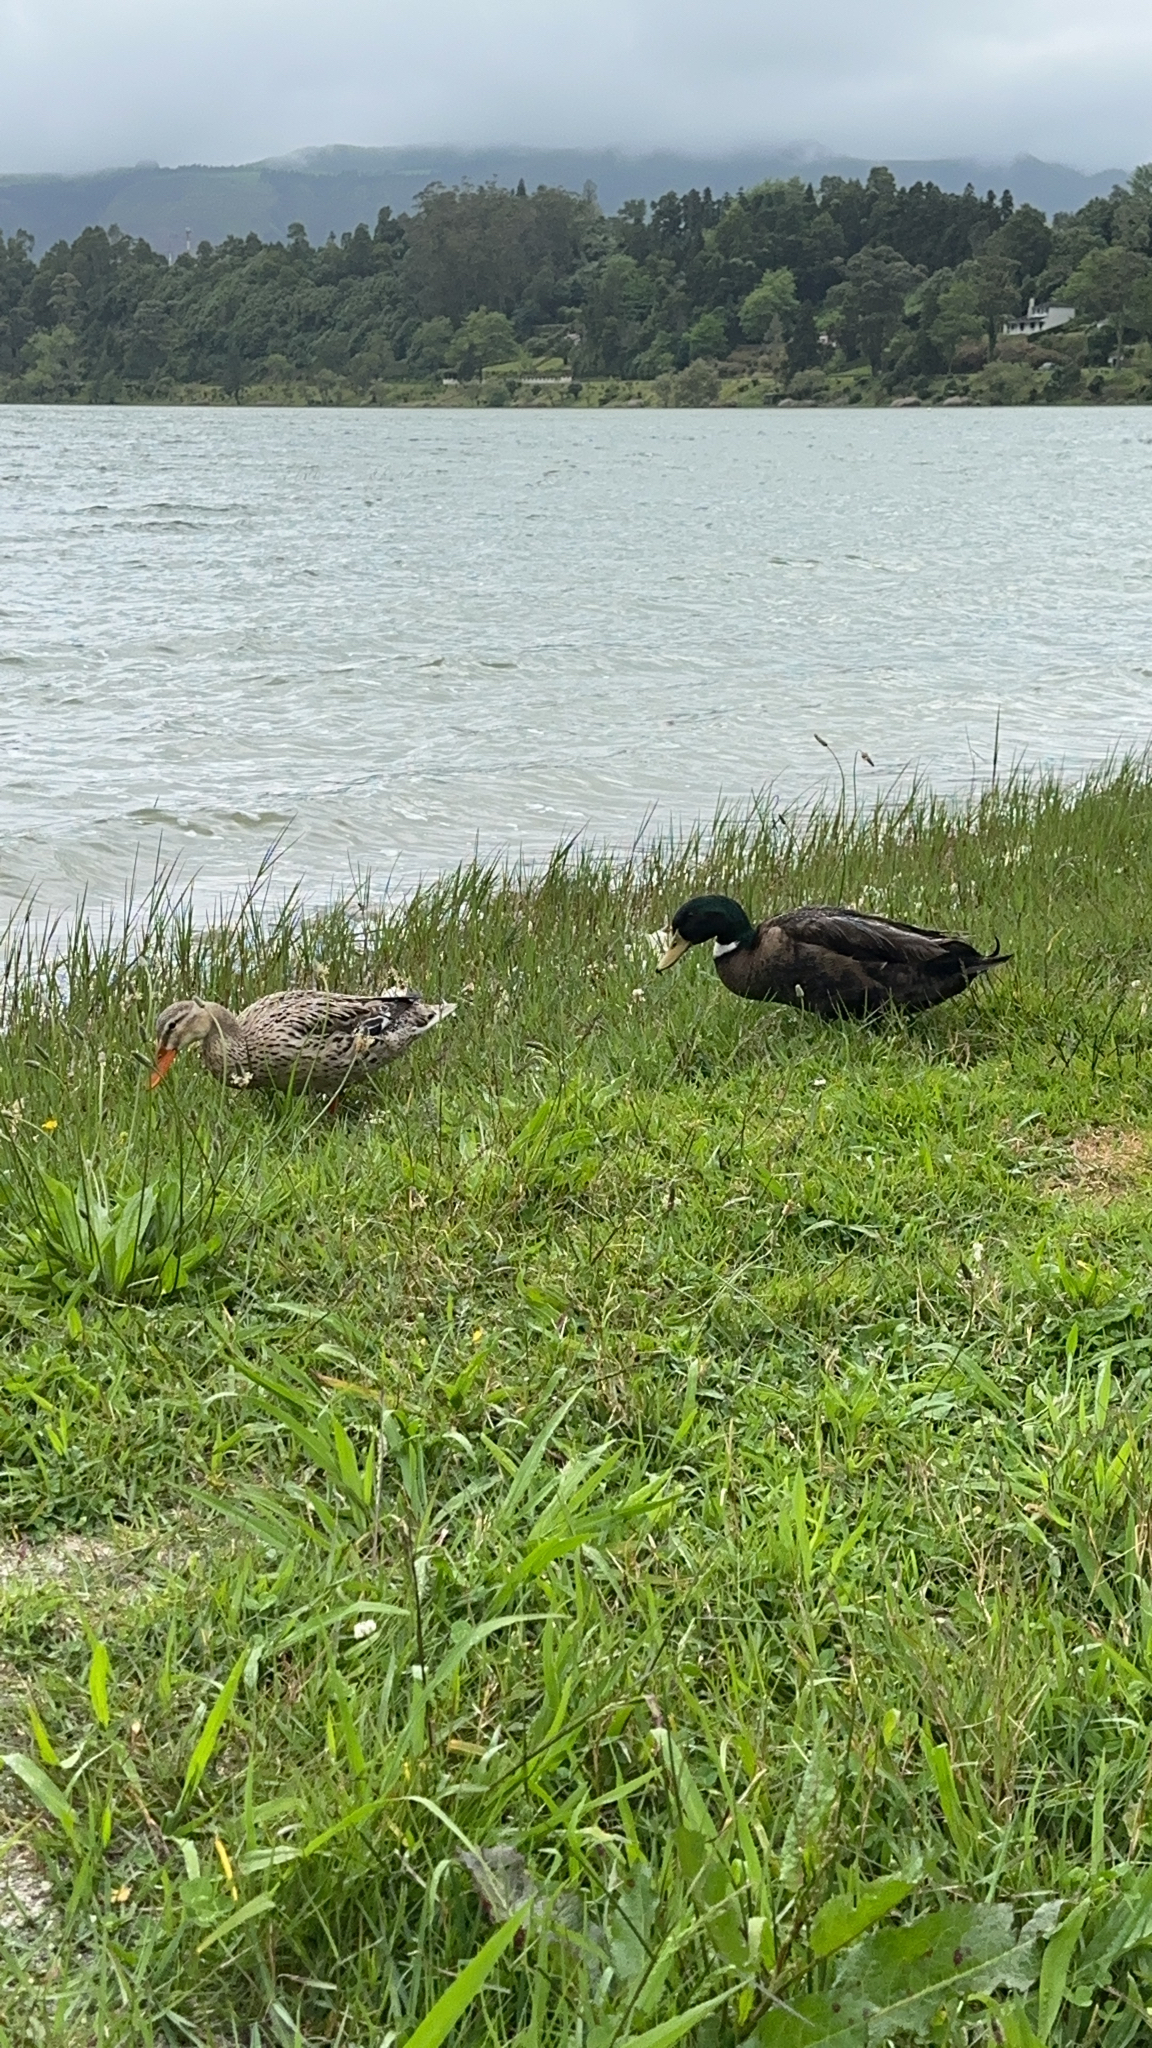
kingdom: Animalia
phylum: Chordata
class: Aves
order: Anseriformes
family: Anatidae
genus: Anas
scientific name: Anas platyrhynchos
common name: Mallard
